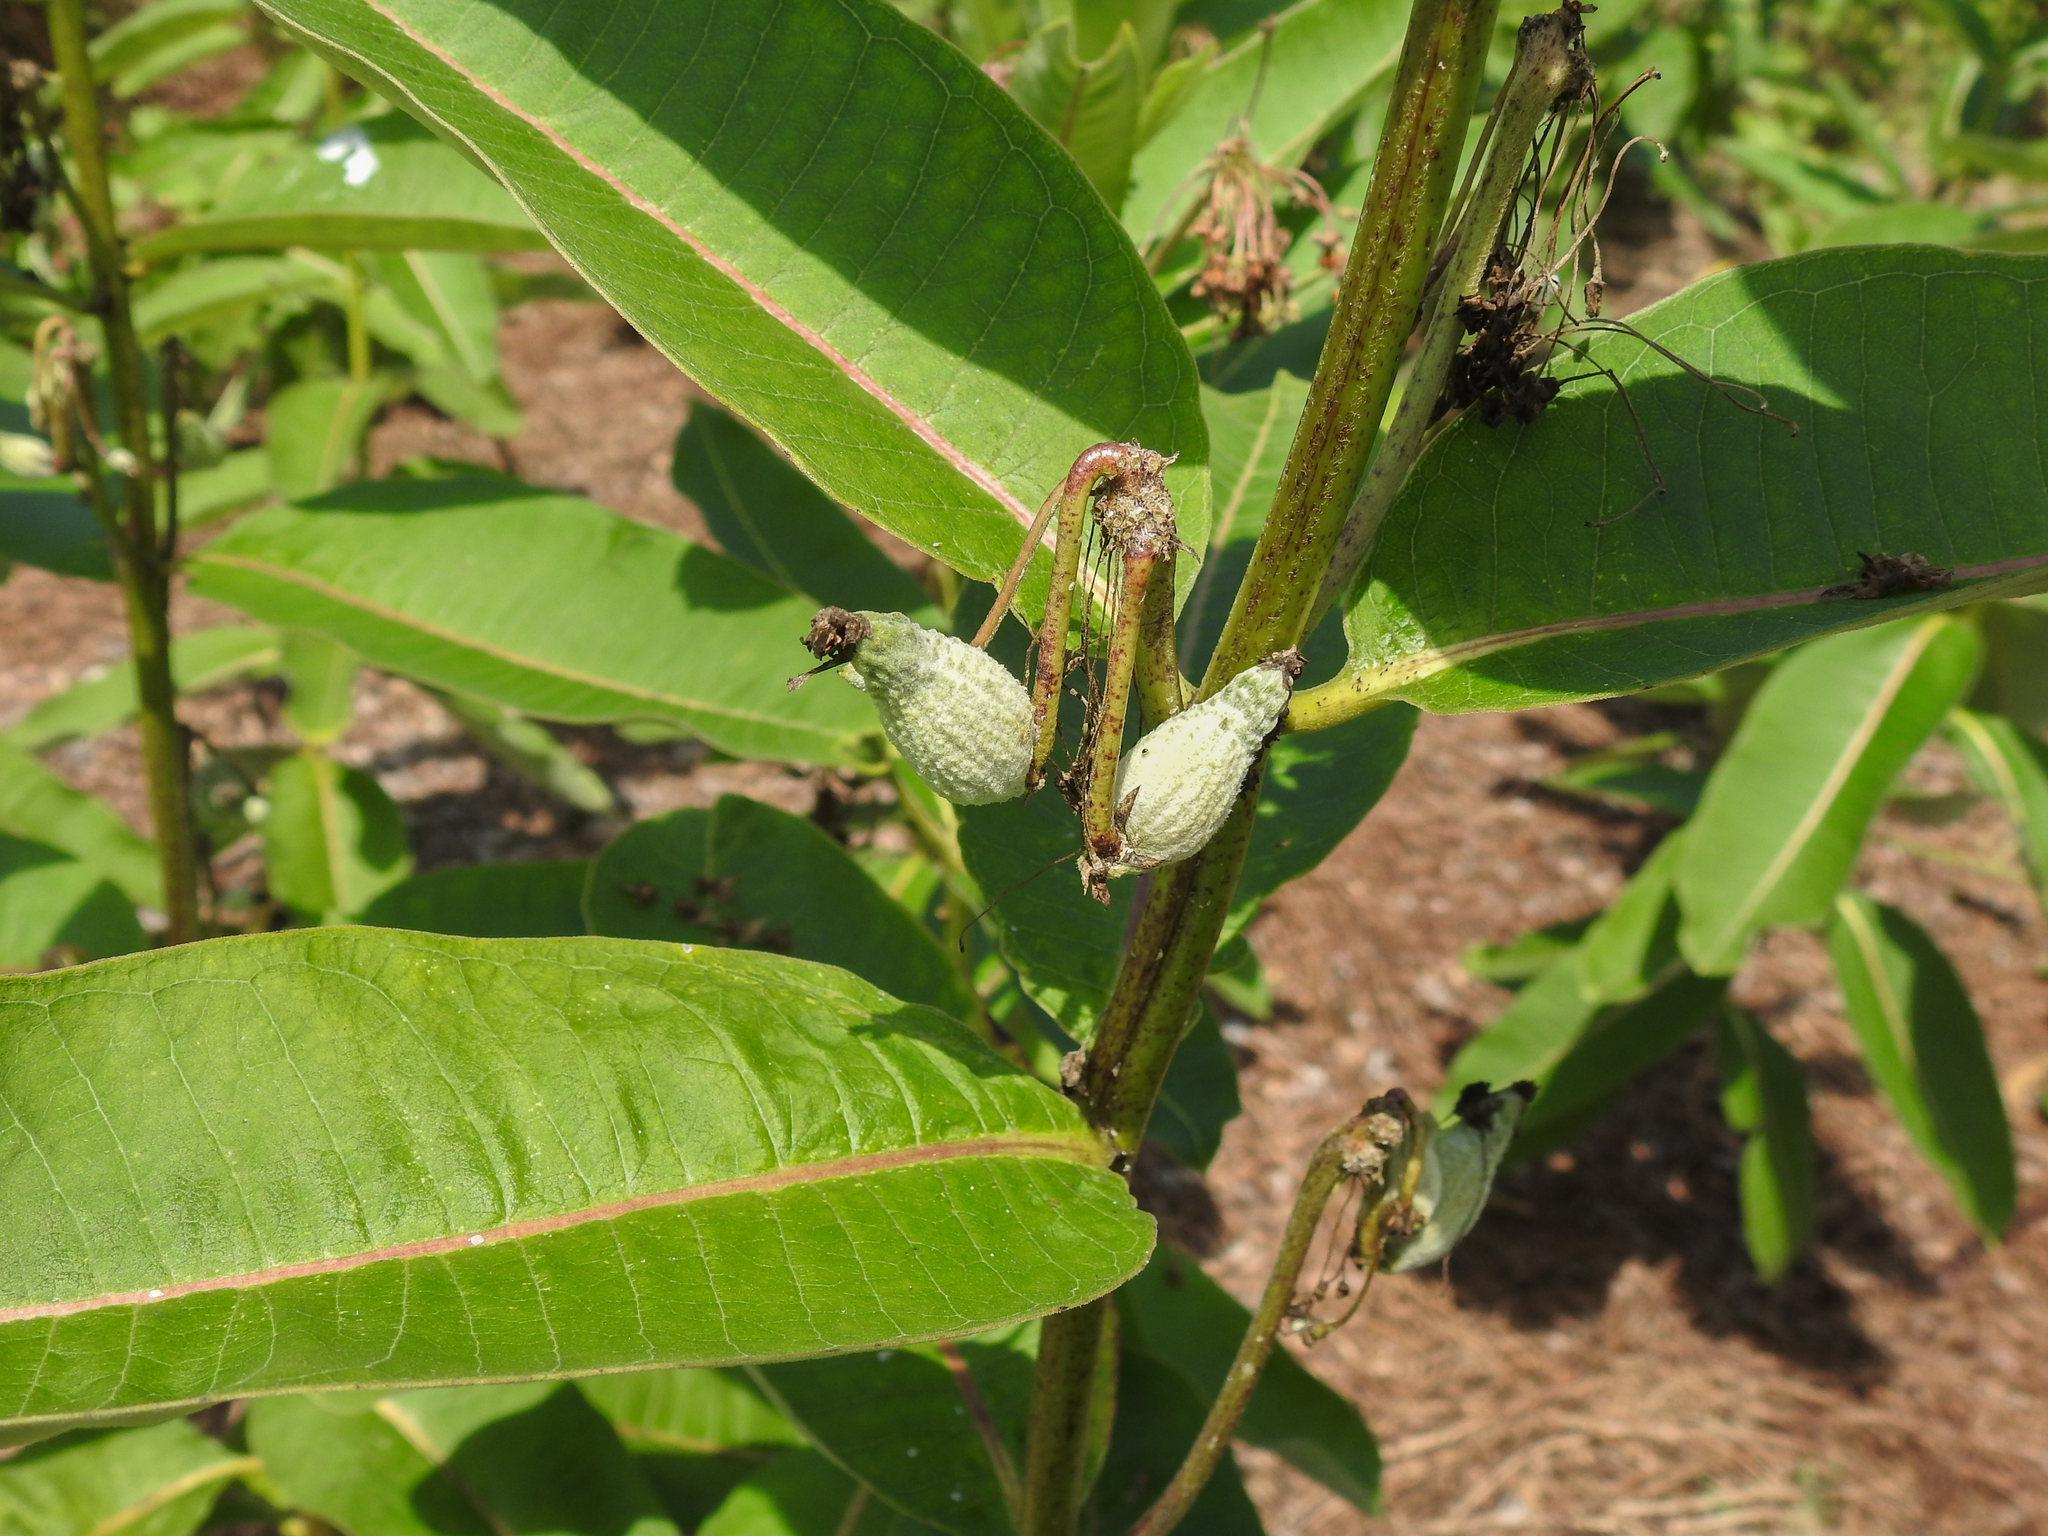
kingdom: Plantae
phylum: Tracheophyta
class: Magnoliopsida
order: Gentianales
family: Apocynaceae
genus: Asclepias
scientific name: Asclepias syriaca
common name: Common milkweed
